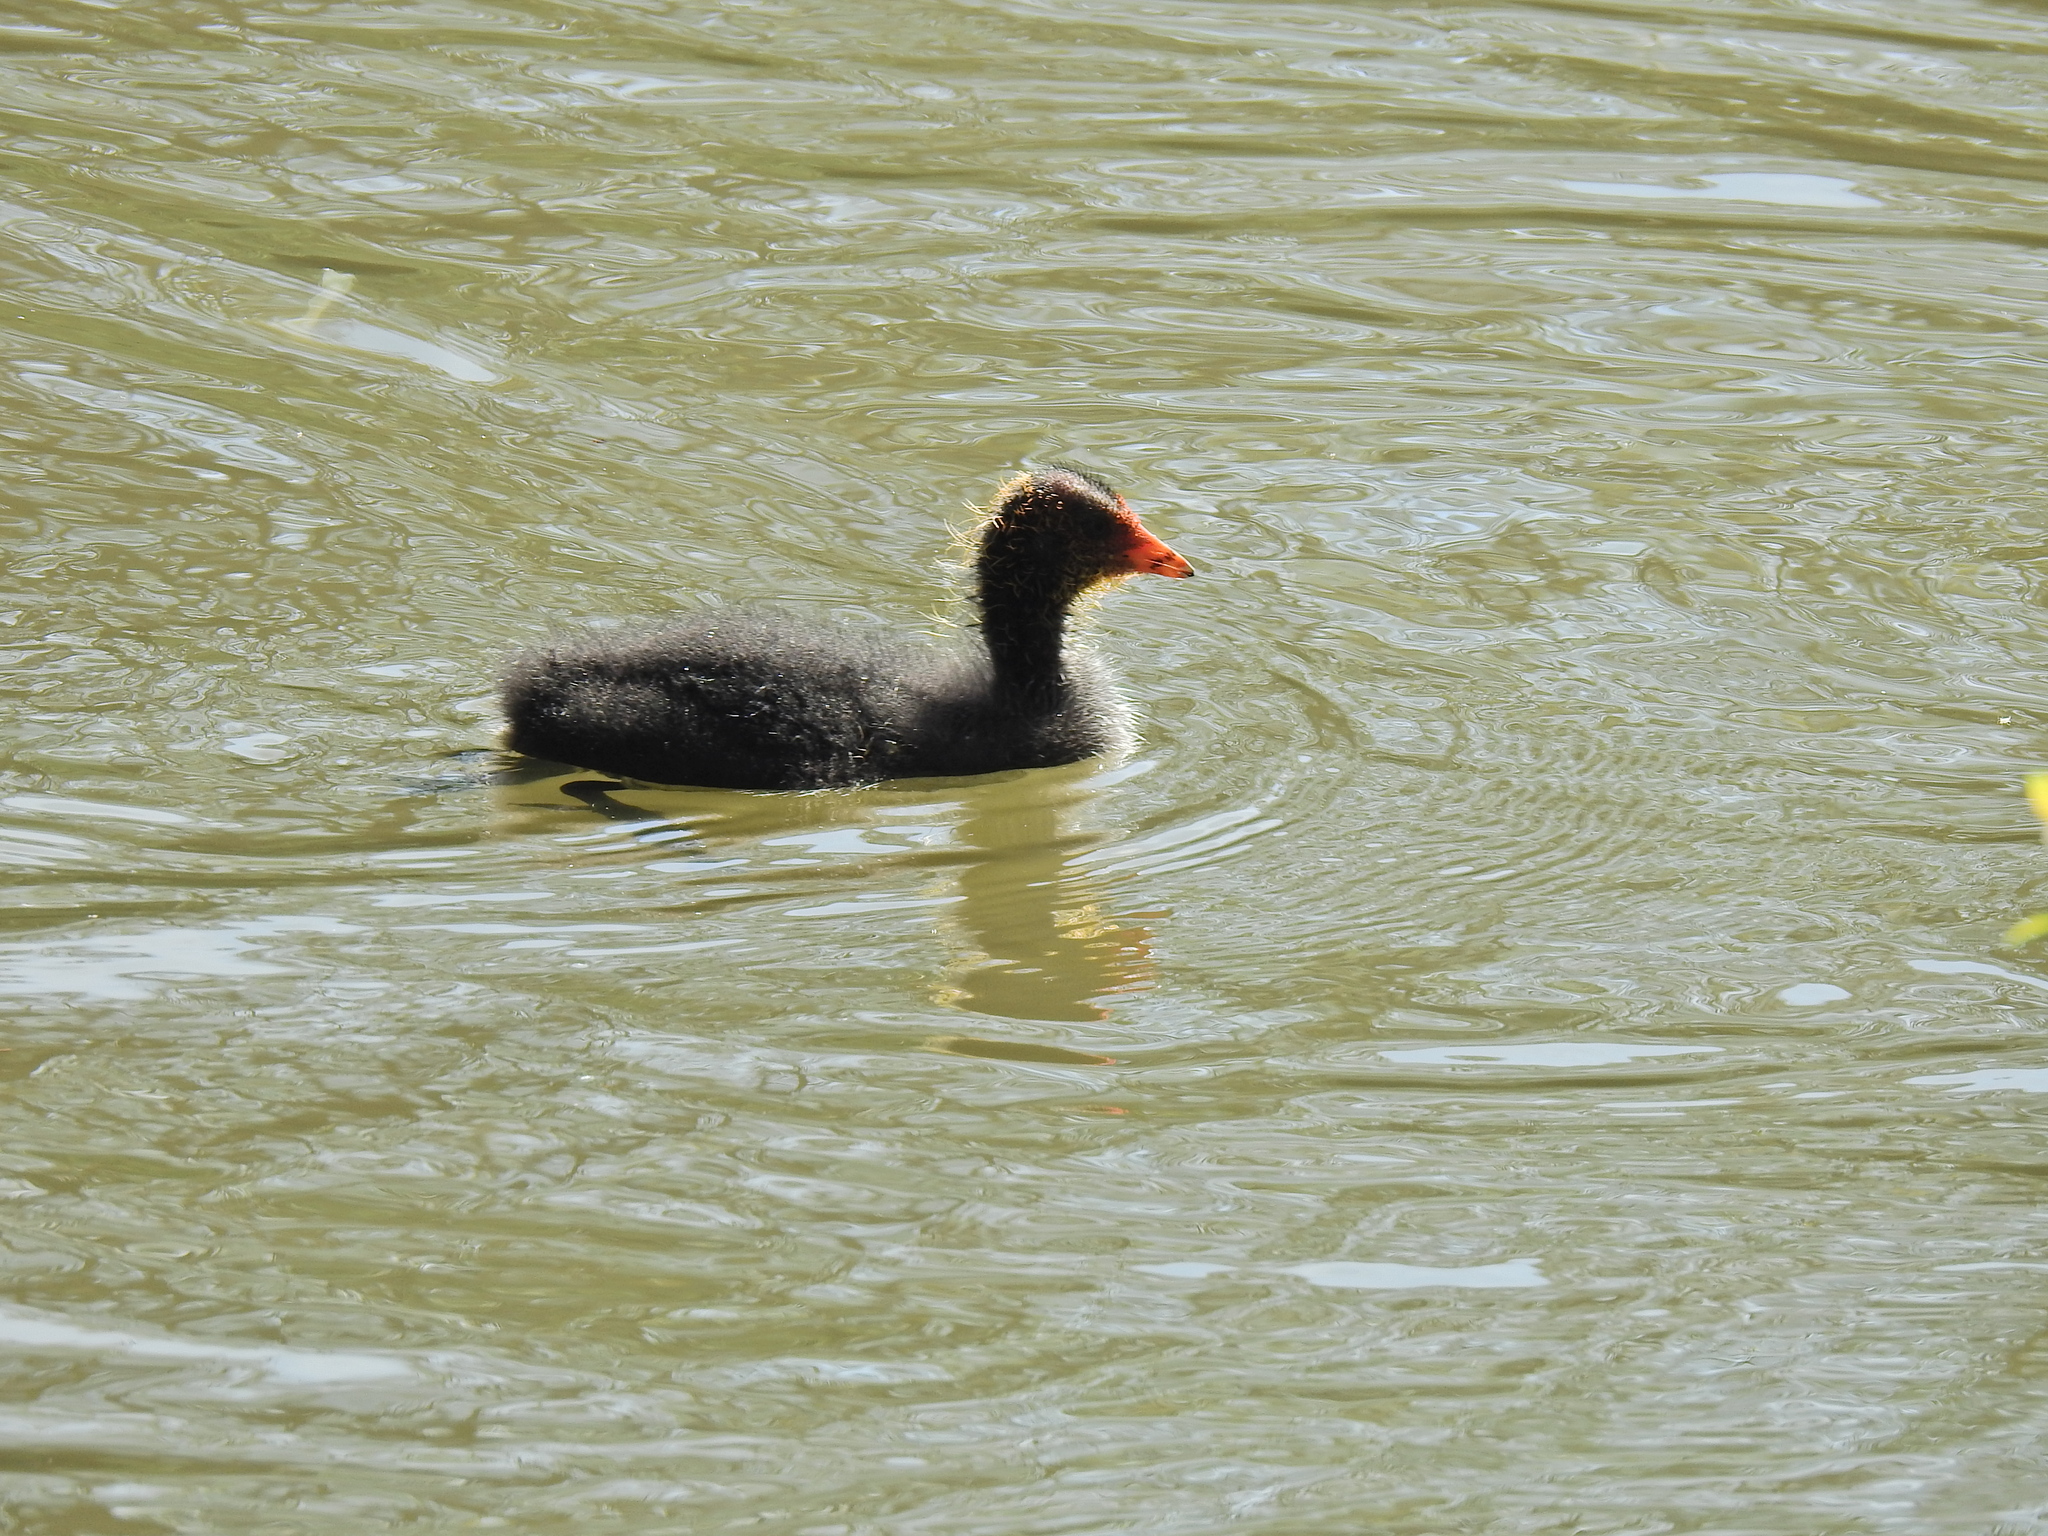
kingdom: Animalia
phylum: Chordata
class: Aves
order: Gruiformes
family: Rallidae
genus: Fulica
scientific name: Fulica atra
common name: Eurasian coot
